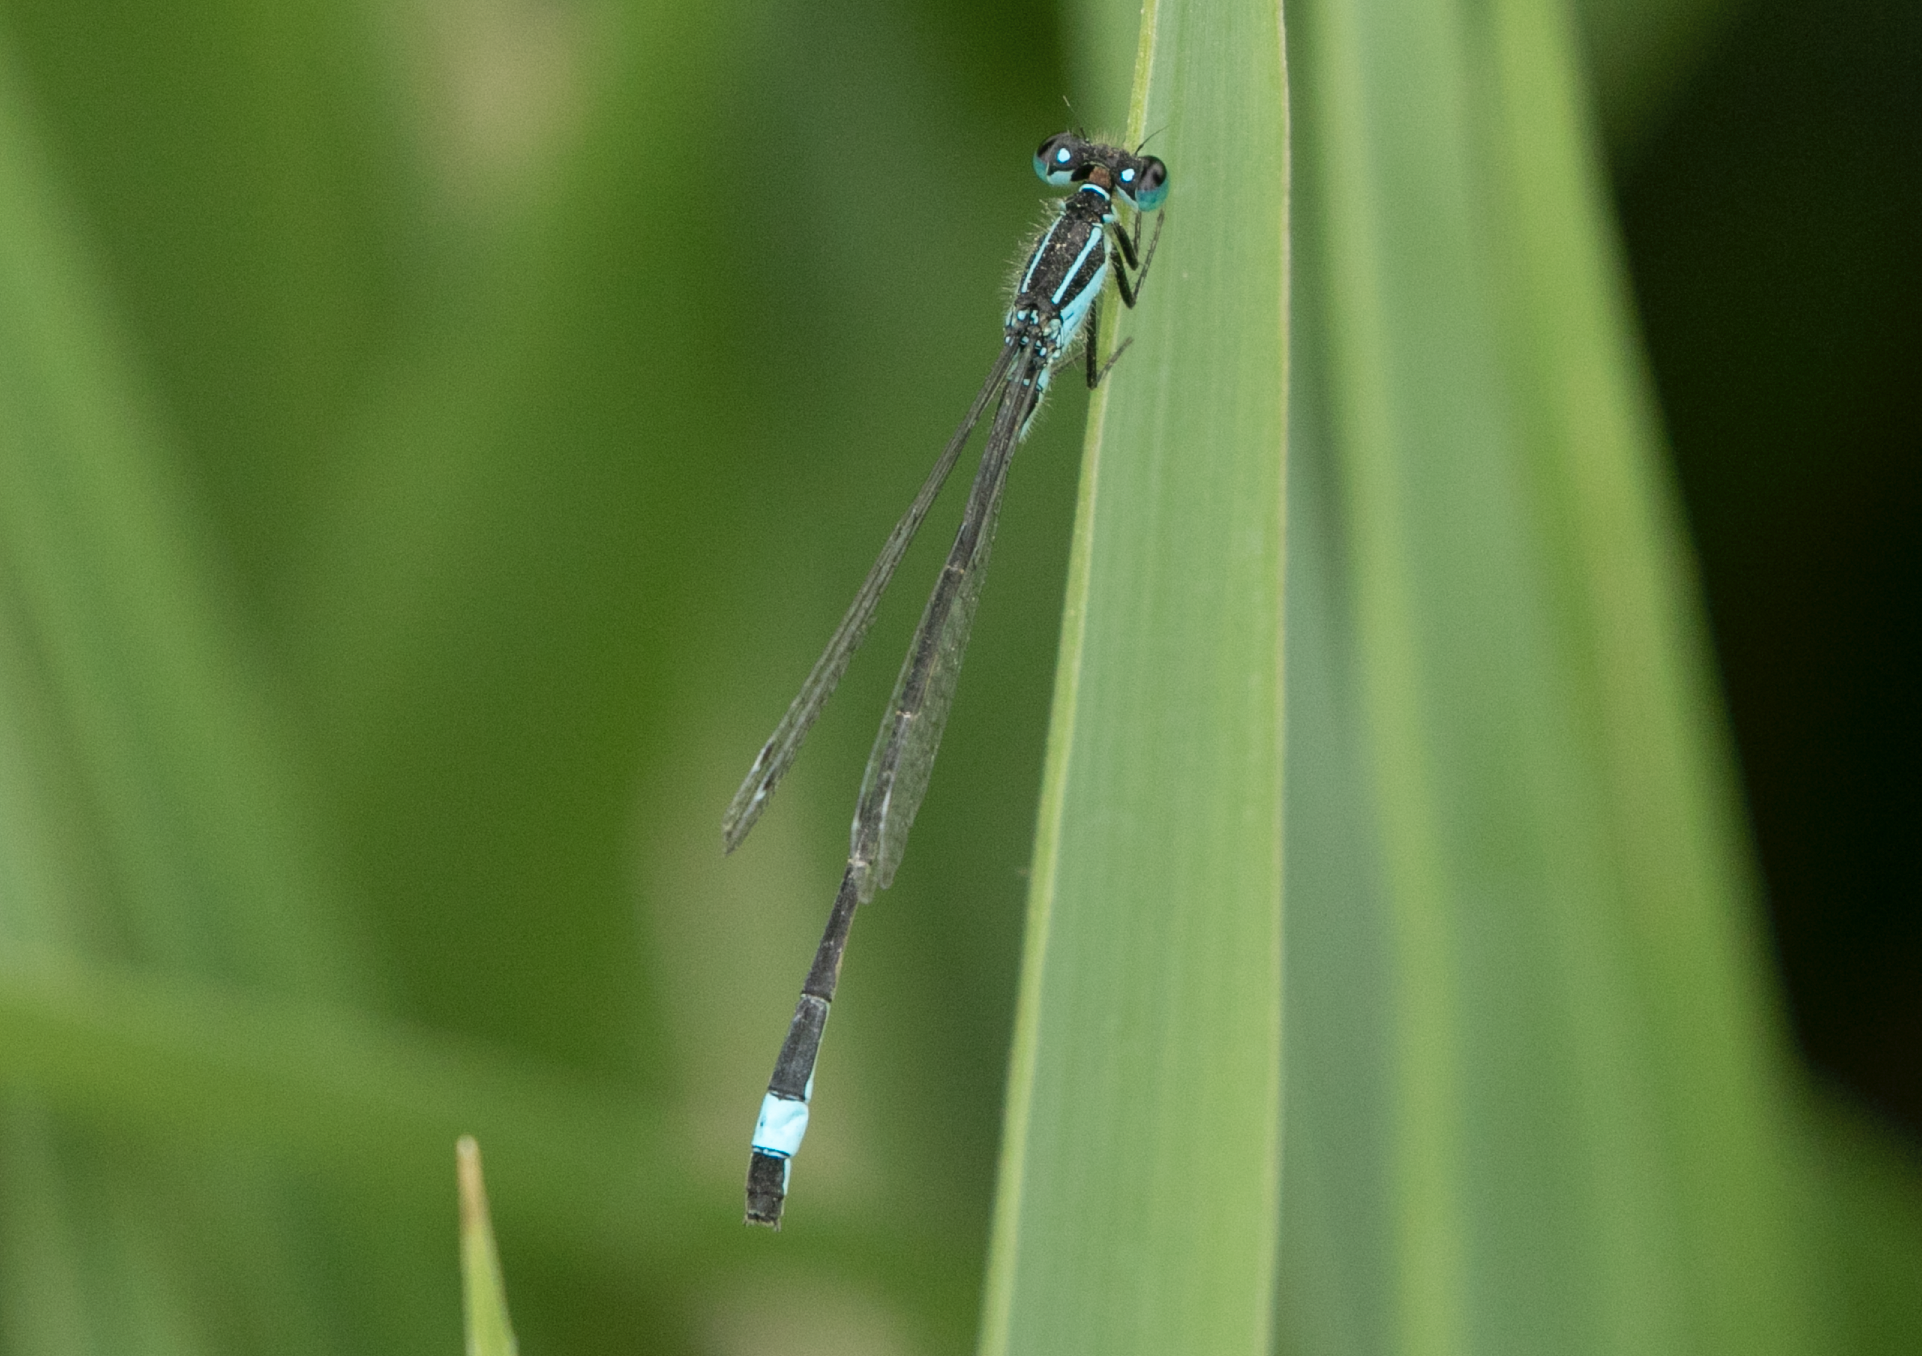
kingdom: Animalia
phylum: Arthropoda
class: Insecta
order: Odonata
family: Coenagrionidae
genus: Ischnura
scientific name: Ischnura elegans
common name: Blue-tailed damselfly
